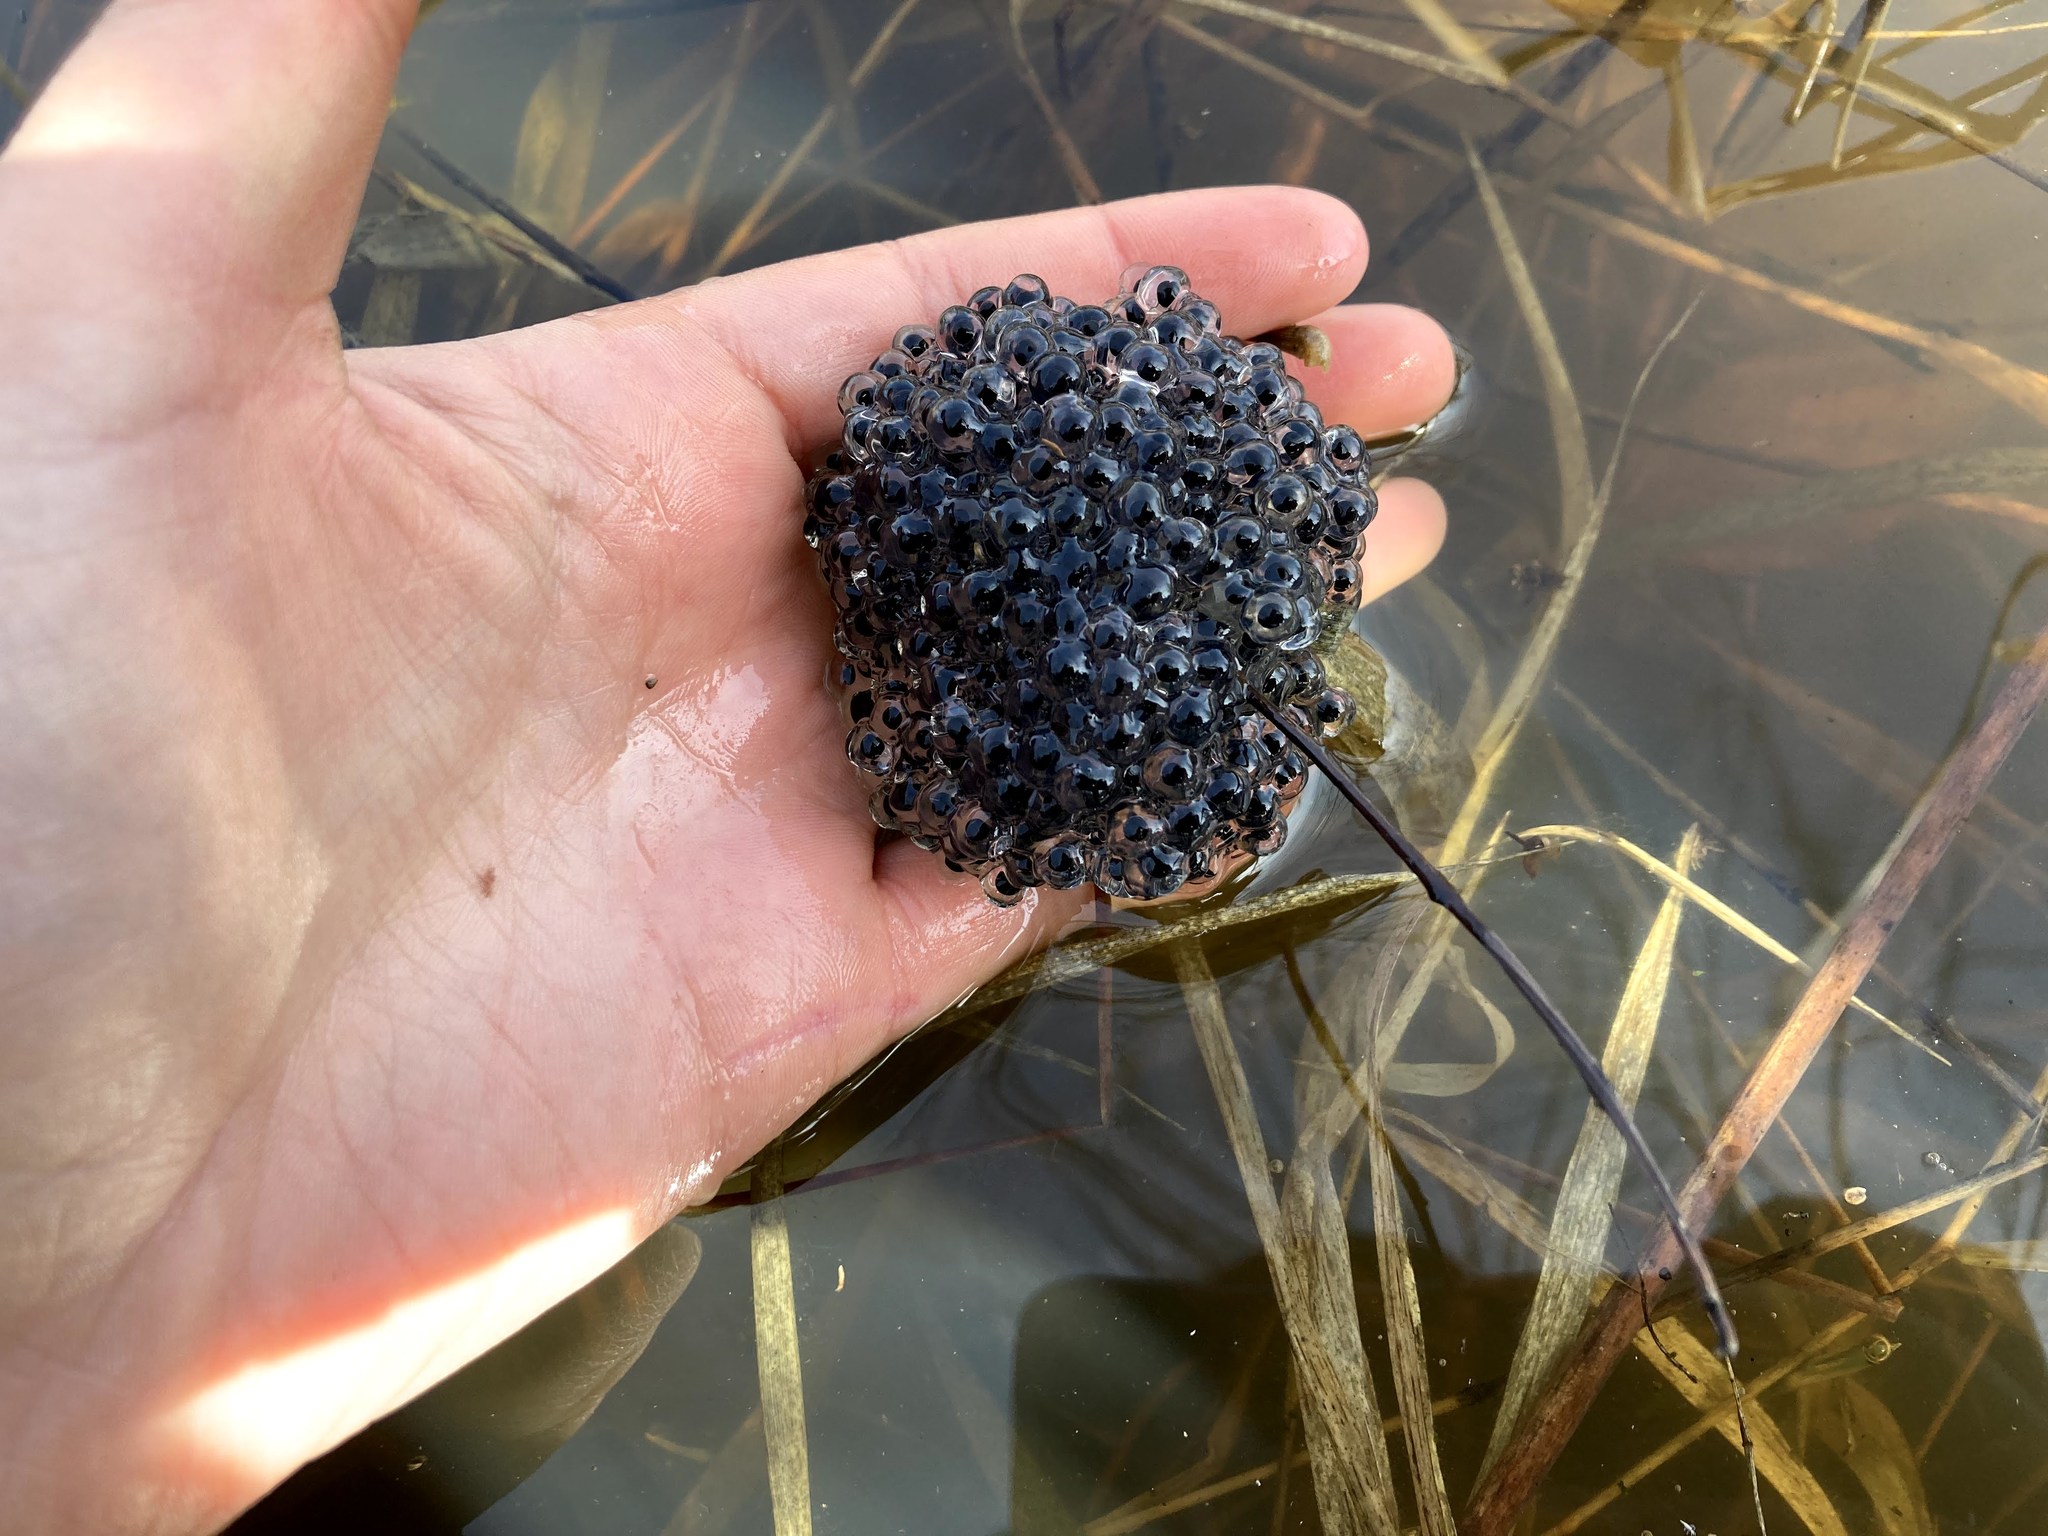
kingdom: Animalia
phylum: Chordata
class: Amphibia
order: Anura
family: Ranidae
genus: Lithobates
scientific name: Lithobates sylvaticus
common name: Wood frog
